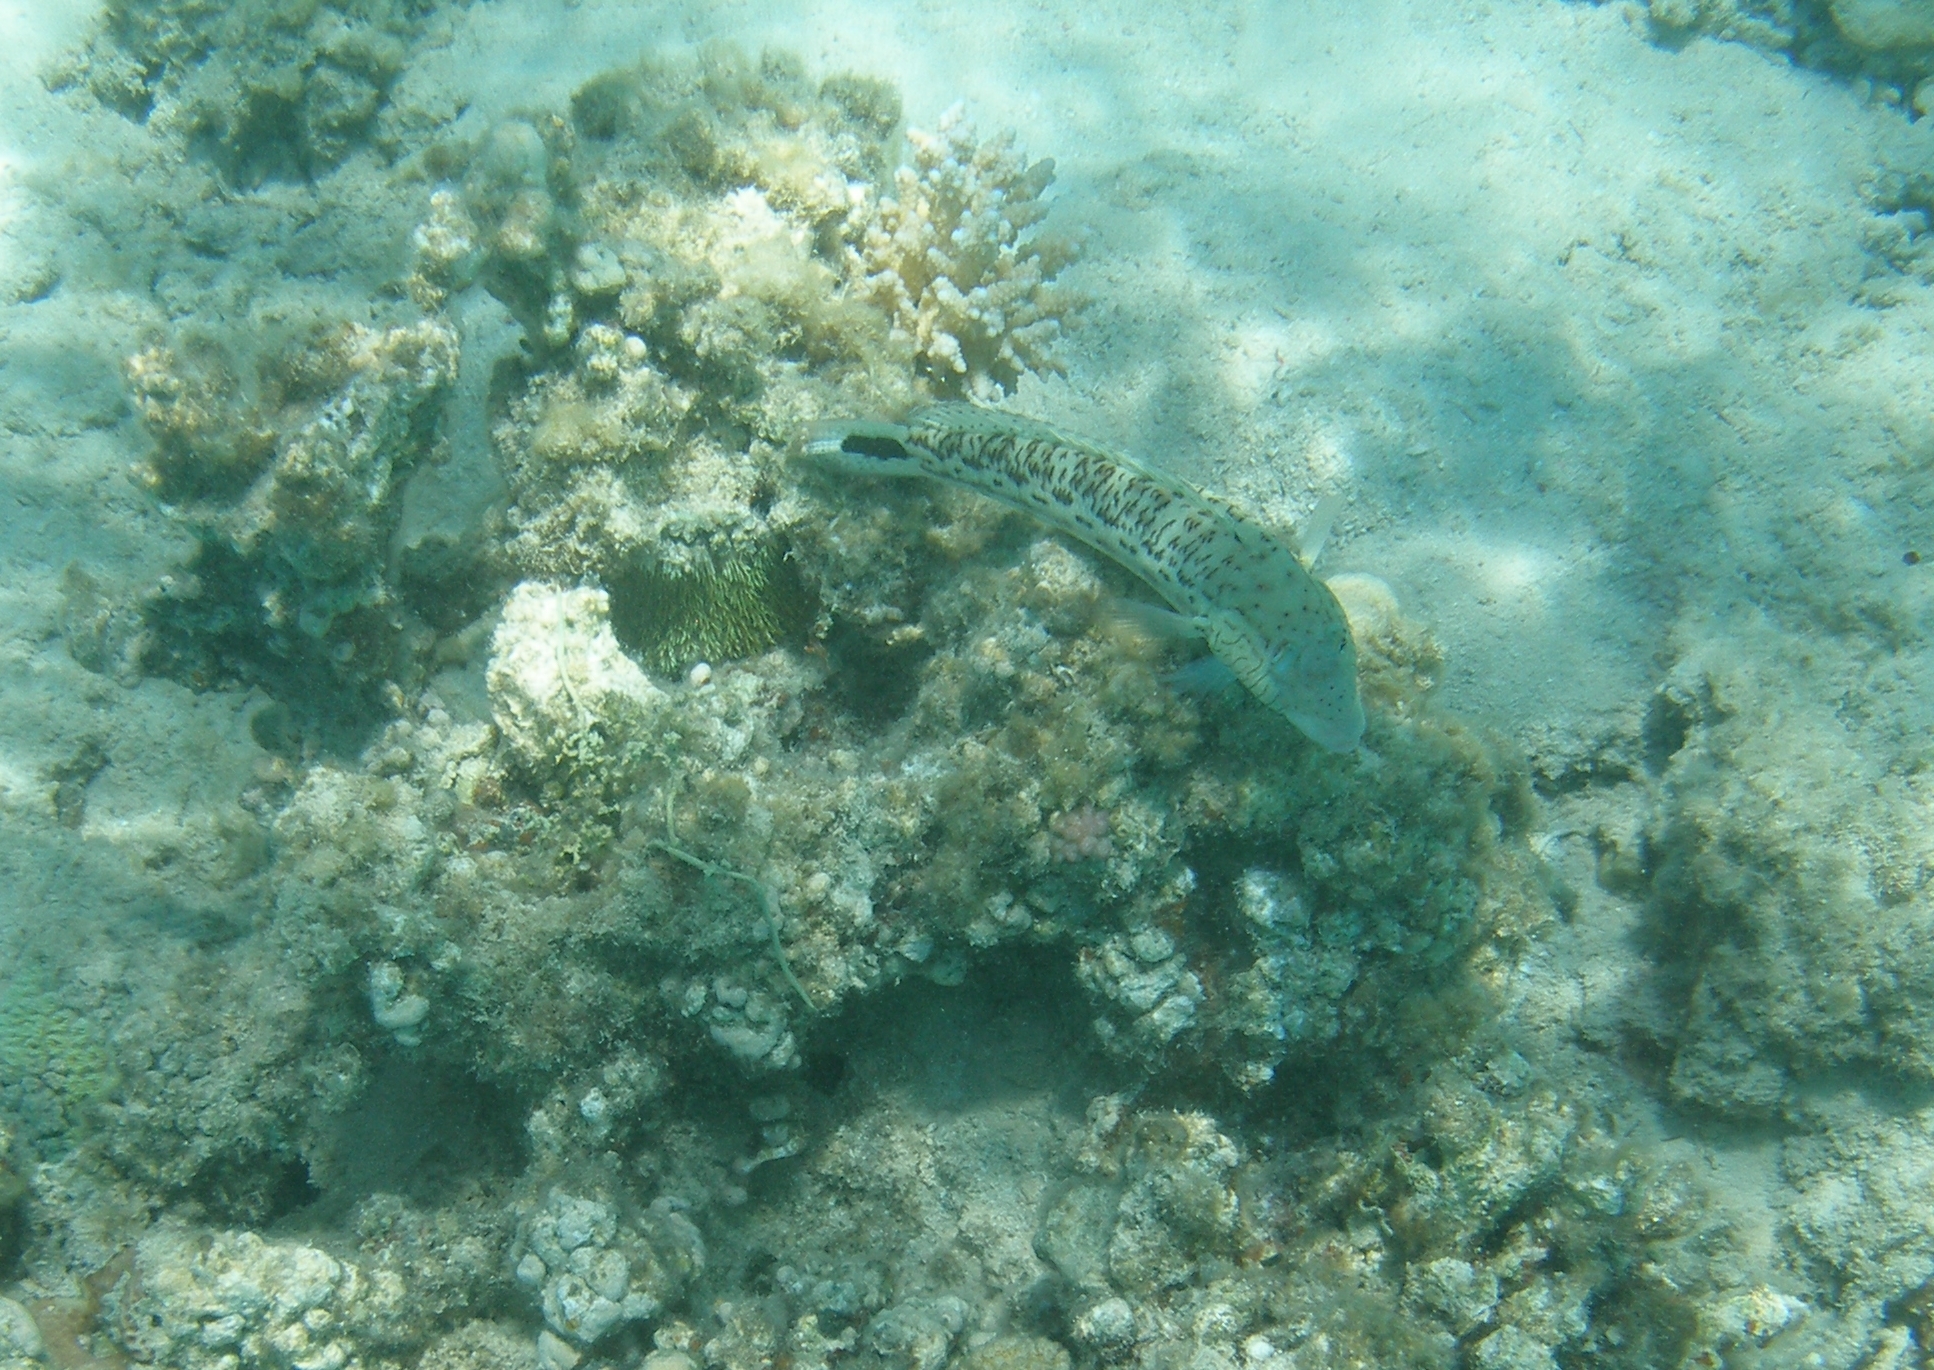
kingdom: Animalia
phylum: Chordata
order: Perciformes
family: Pinguipedidae
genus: Parapercis
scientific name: Parapercis hexophtalma
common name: Speckled sandperch
